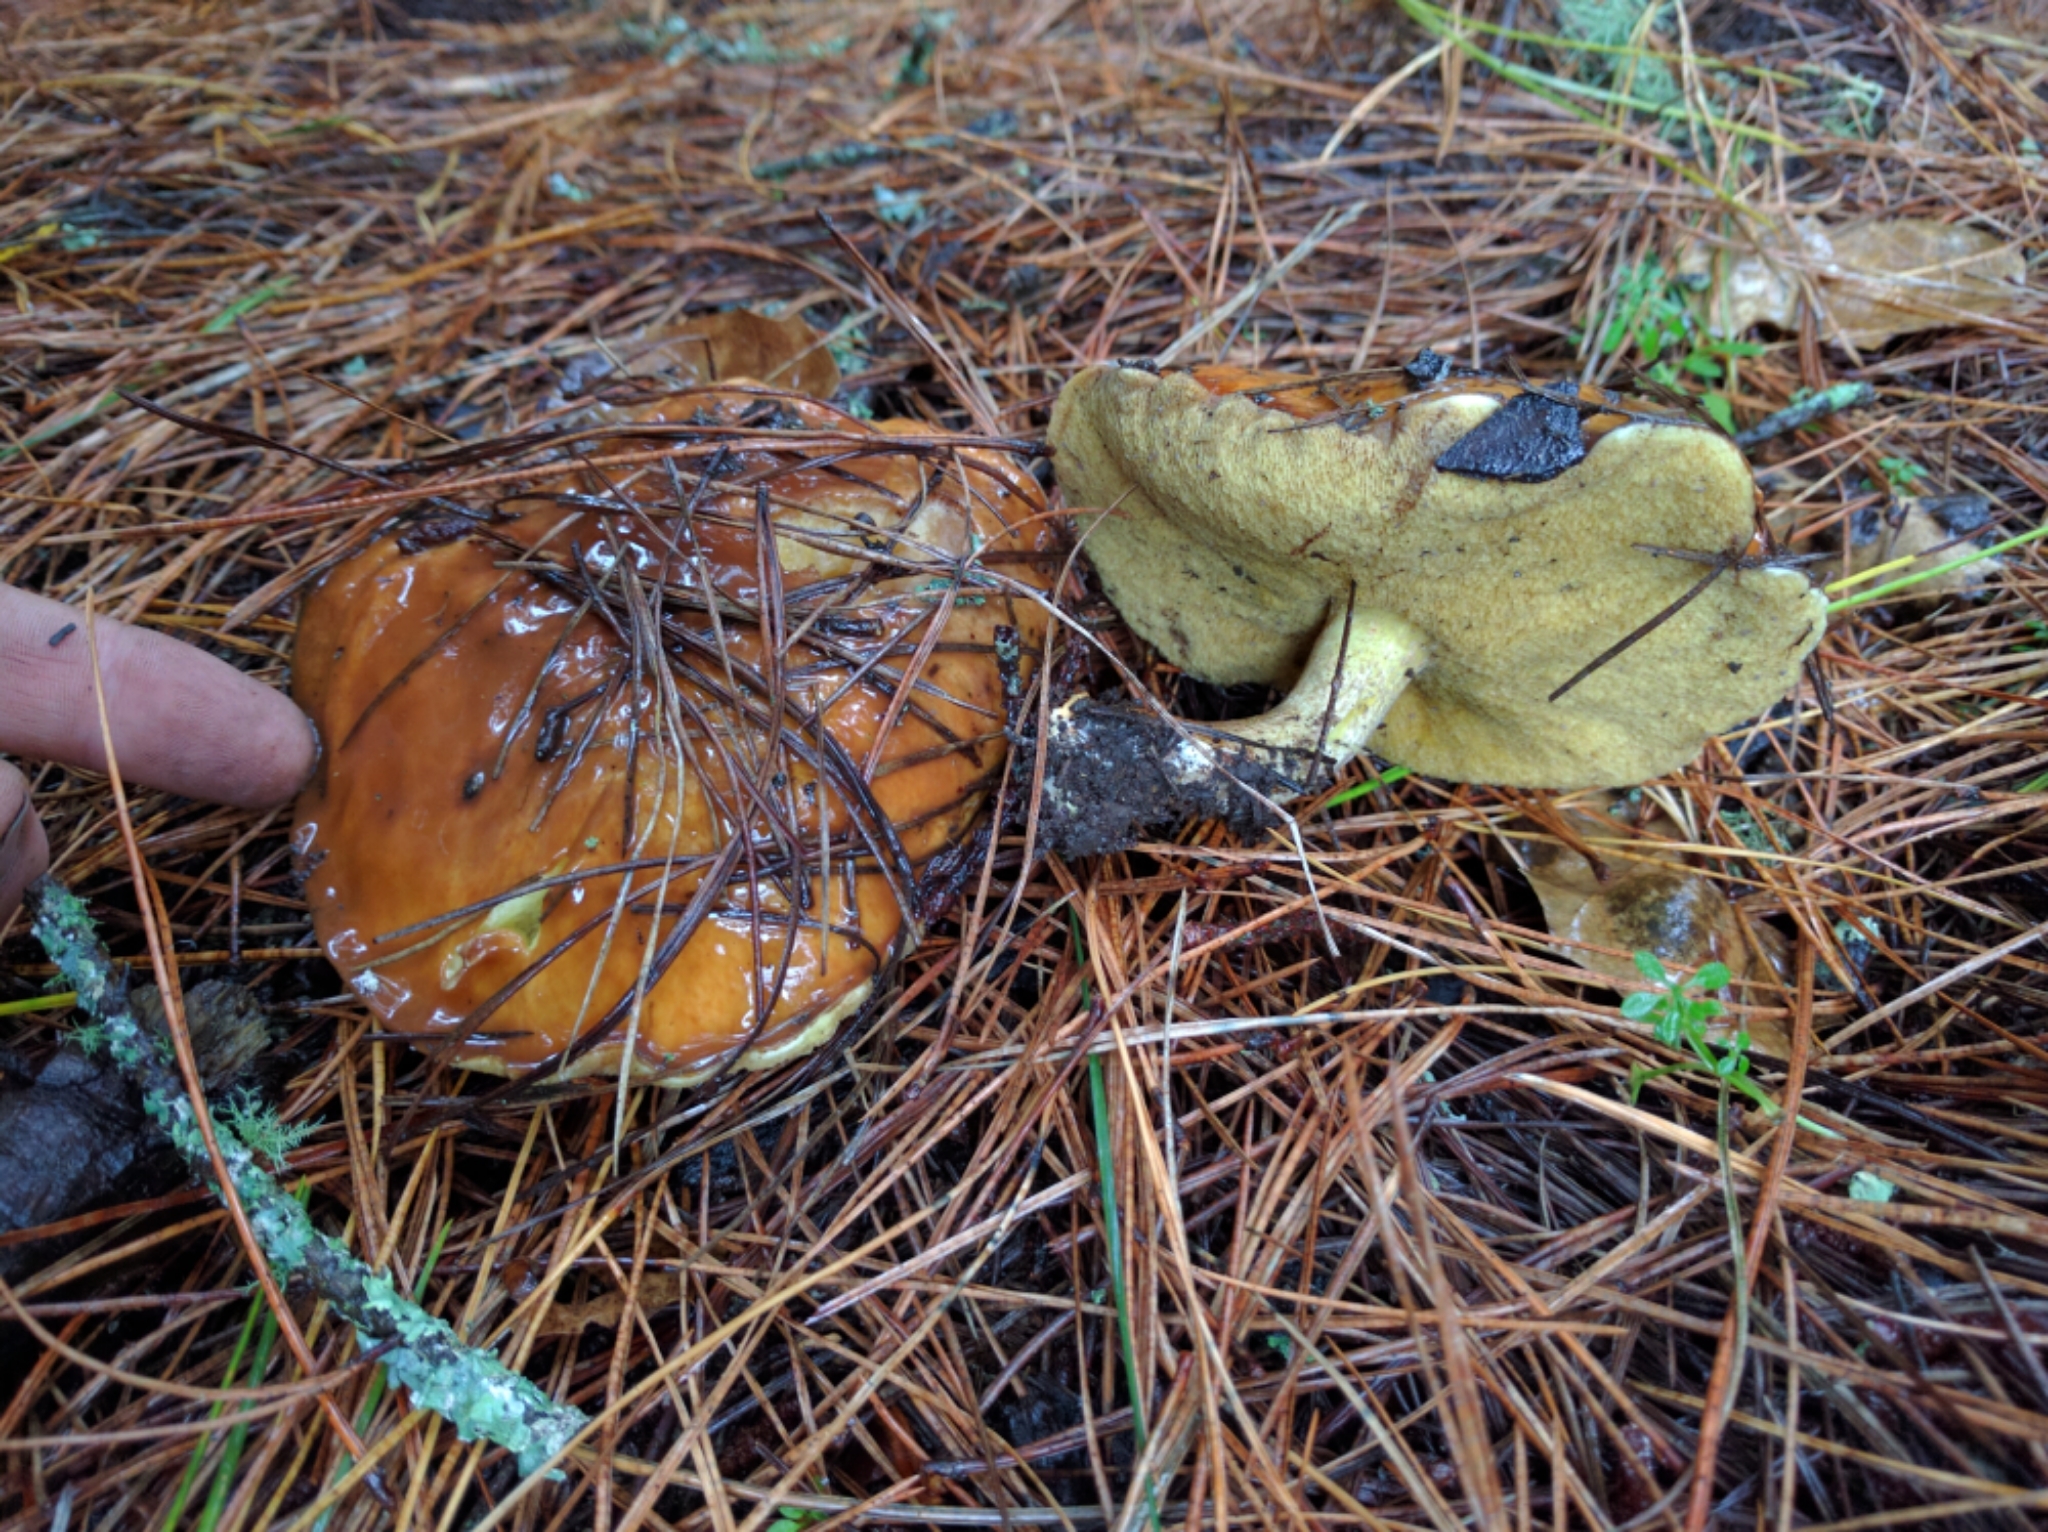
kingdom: Fungi
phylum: Basidiomycota
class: Agaricomycetes
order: Boletales
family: Suillaceae
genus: Suillus
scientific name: Suillus pungens
